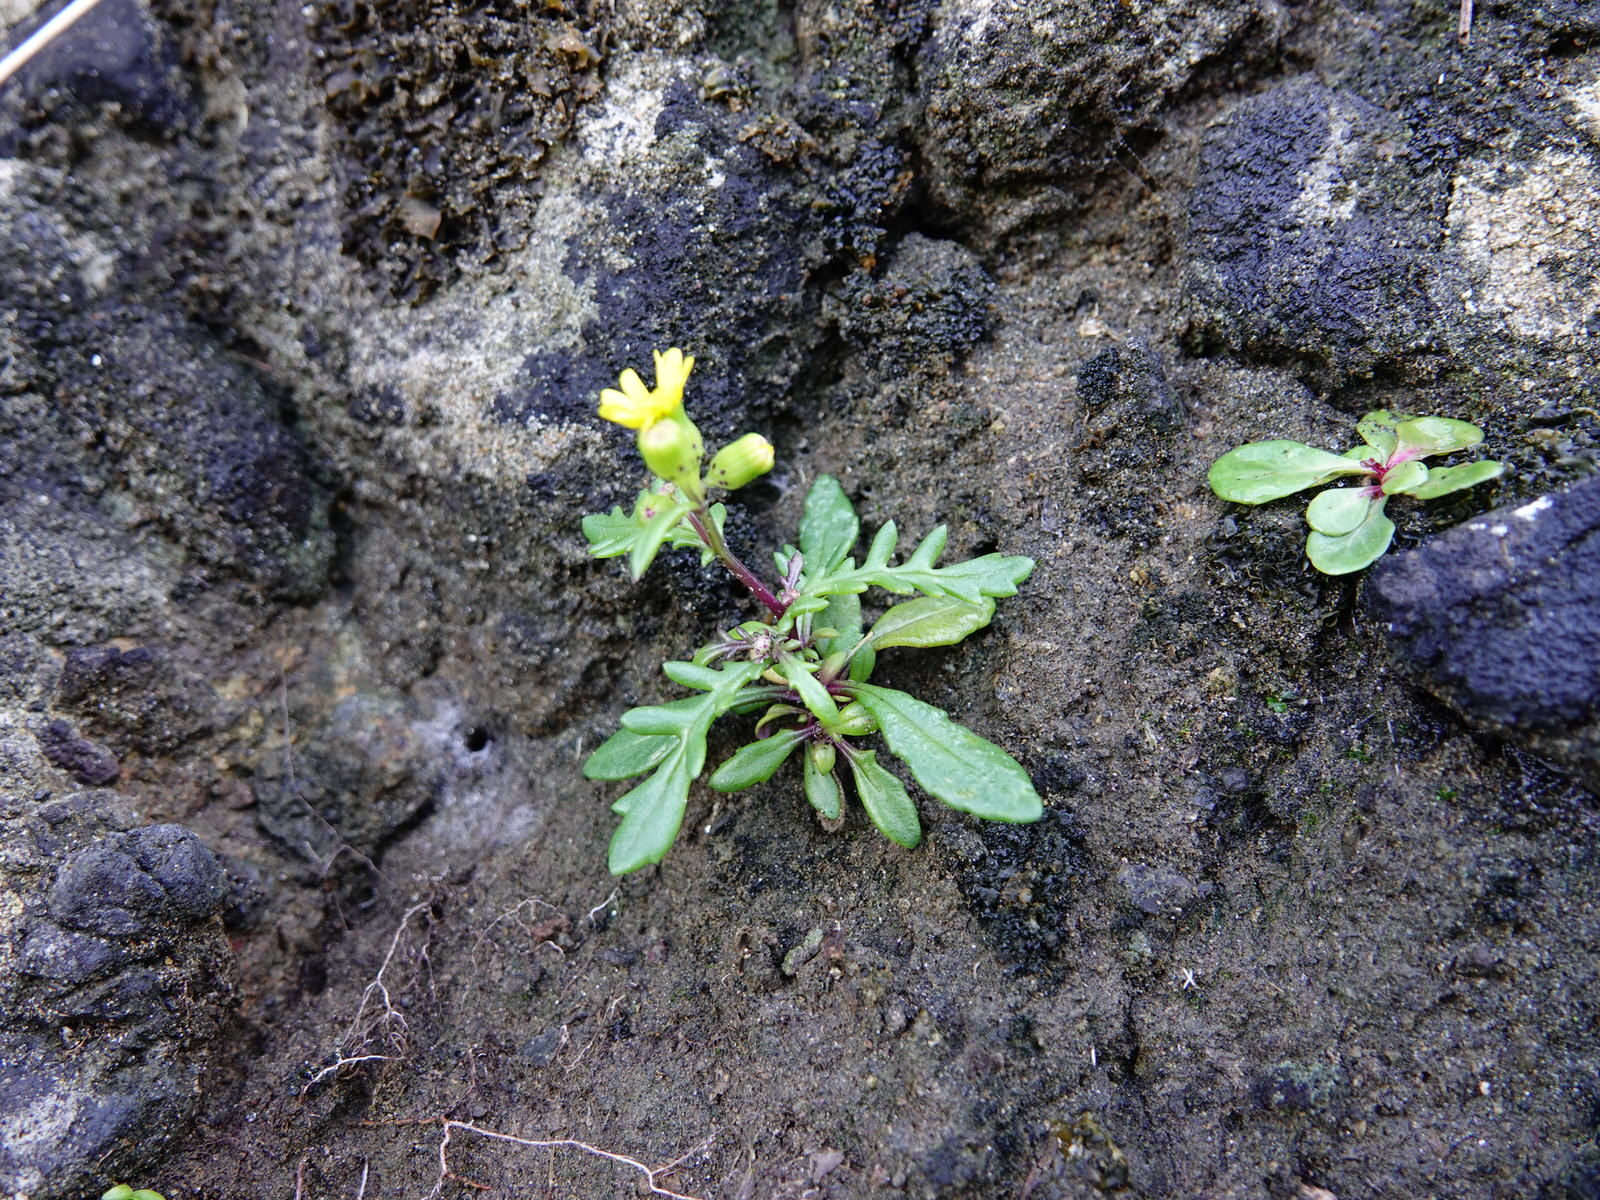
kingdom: Plantae
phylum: Tracheophyta
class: Magnoliopsida
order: Asterales
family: Asteraceae
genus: Senecio
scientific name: Senecio lautus
